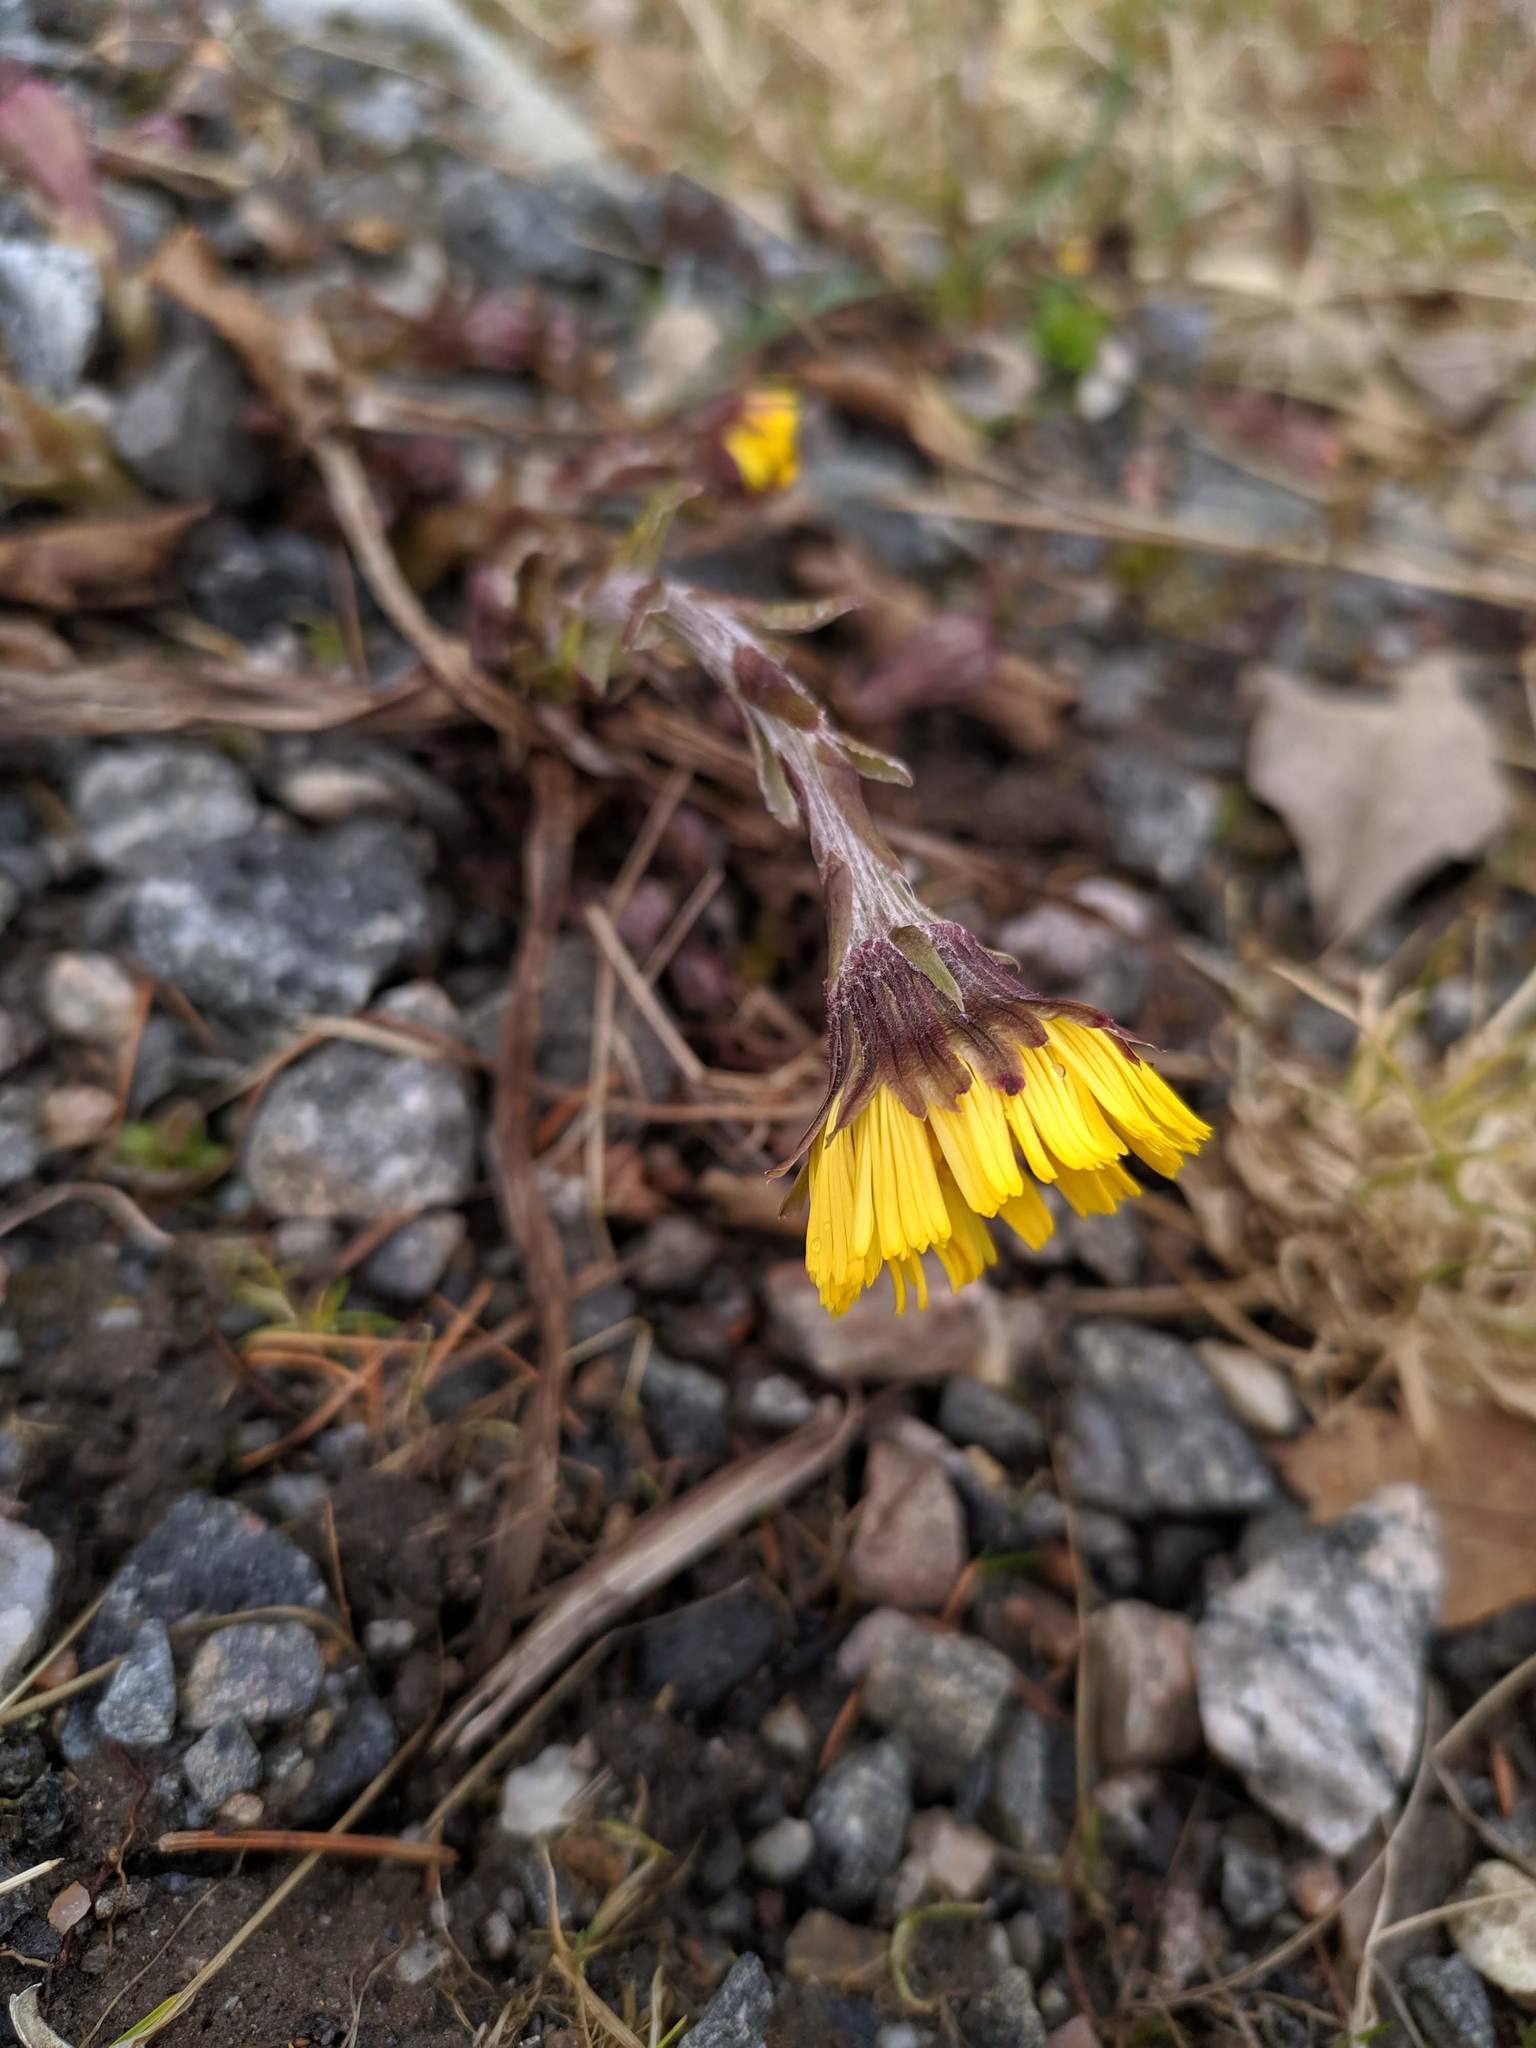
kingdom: Plantae
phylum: Tracheophyta
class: Magnoliopsida
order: Asterales
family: Asteraceae
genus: Tussilago
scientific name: Tussilago farfara
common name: Coltsfoot
